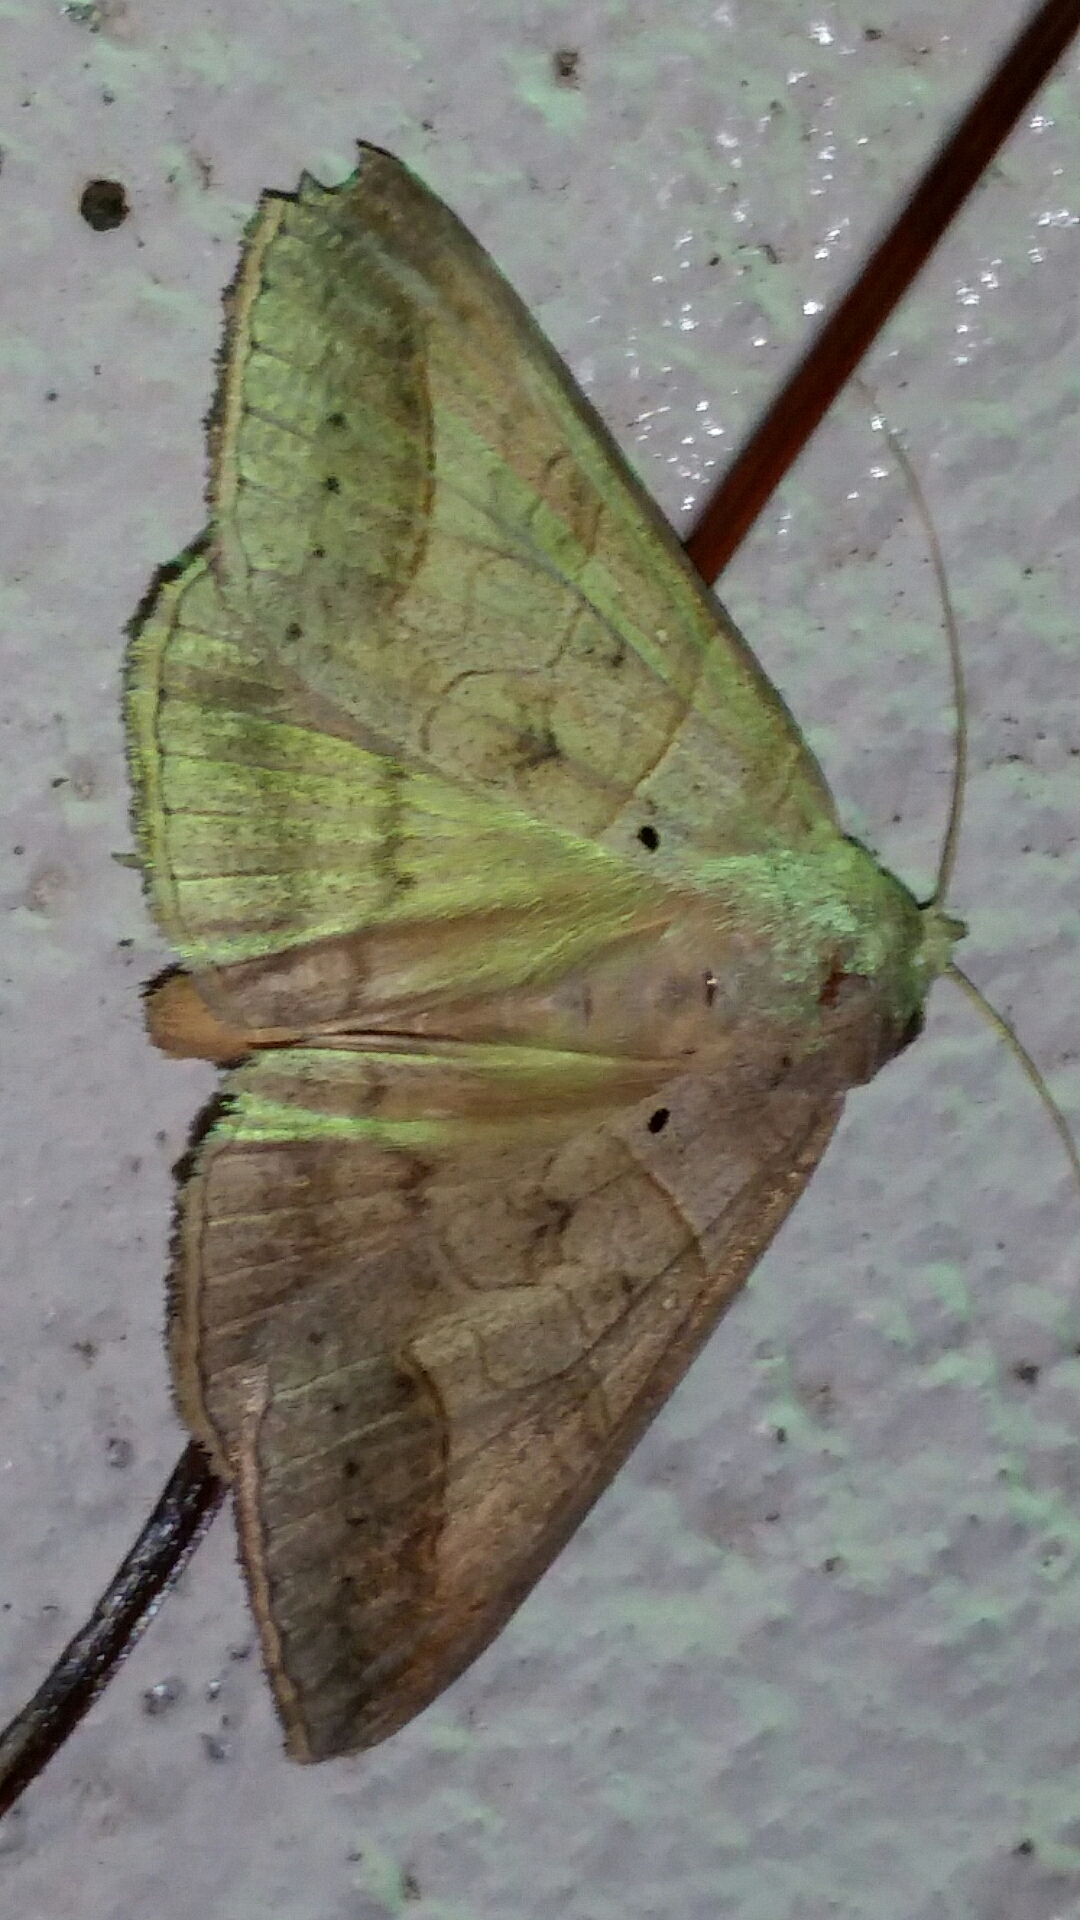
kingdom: Animalia
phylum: Arthropoda
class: Insecta
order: Lepidoptera
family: Erebidae
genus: Mocis
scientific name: Mocis marcida
